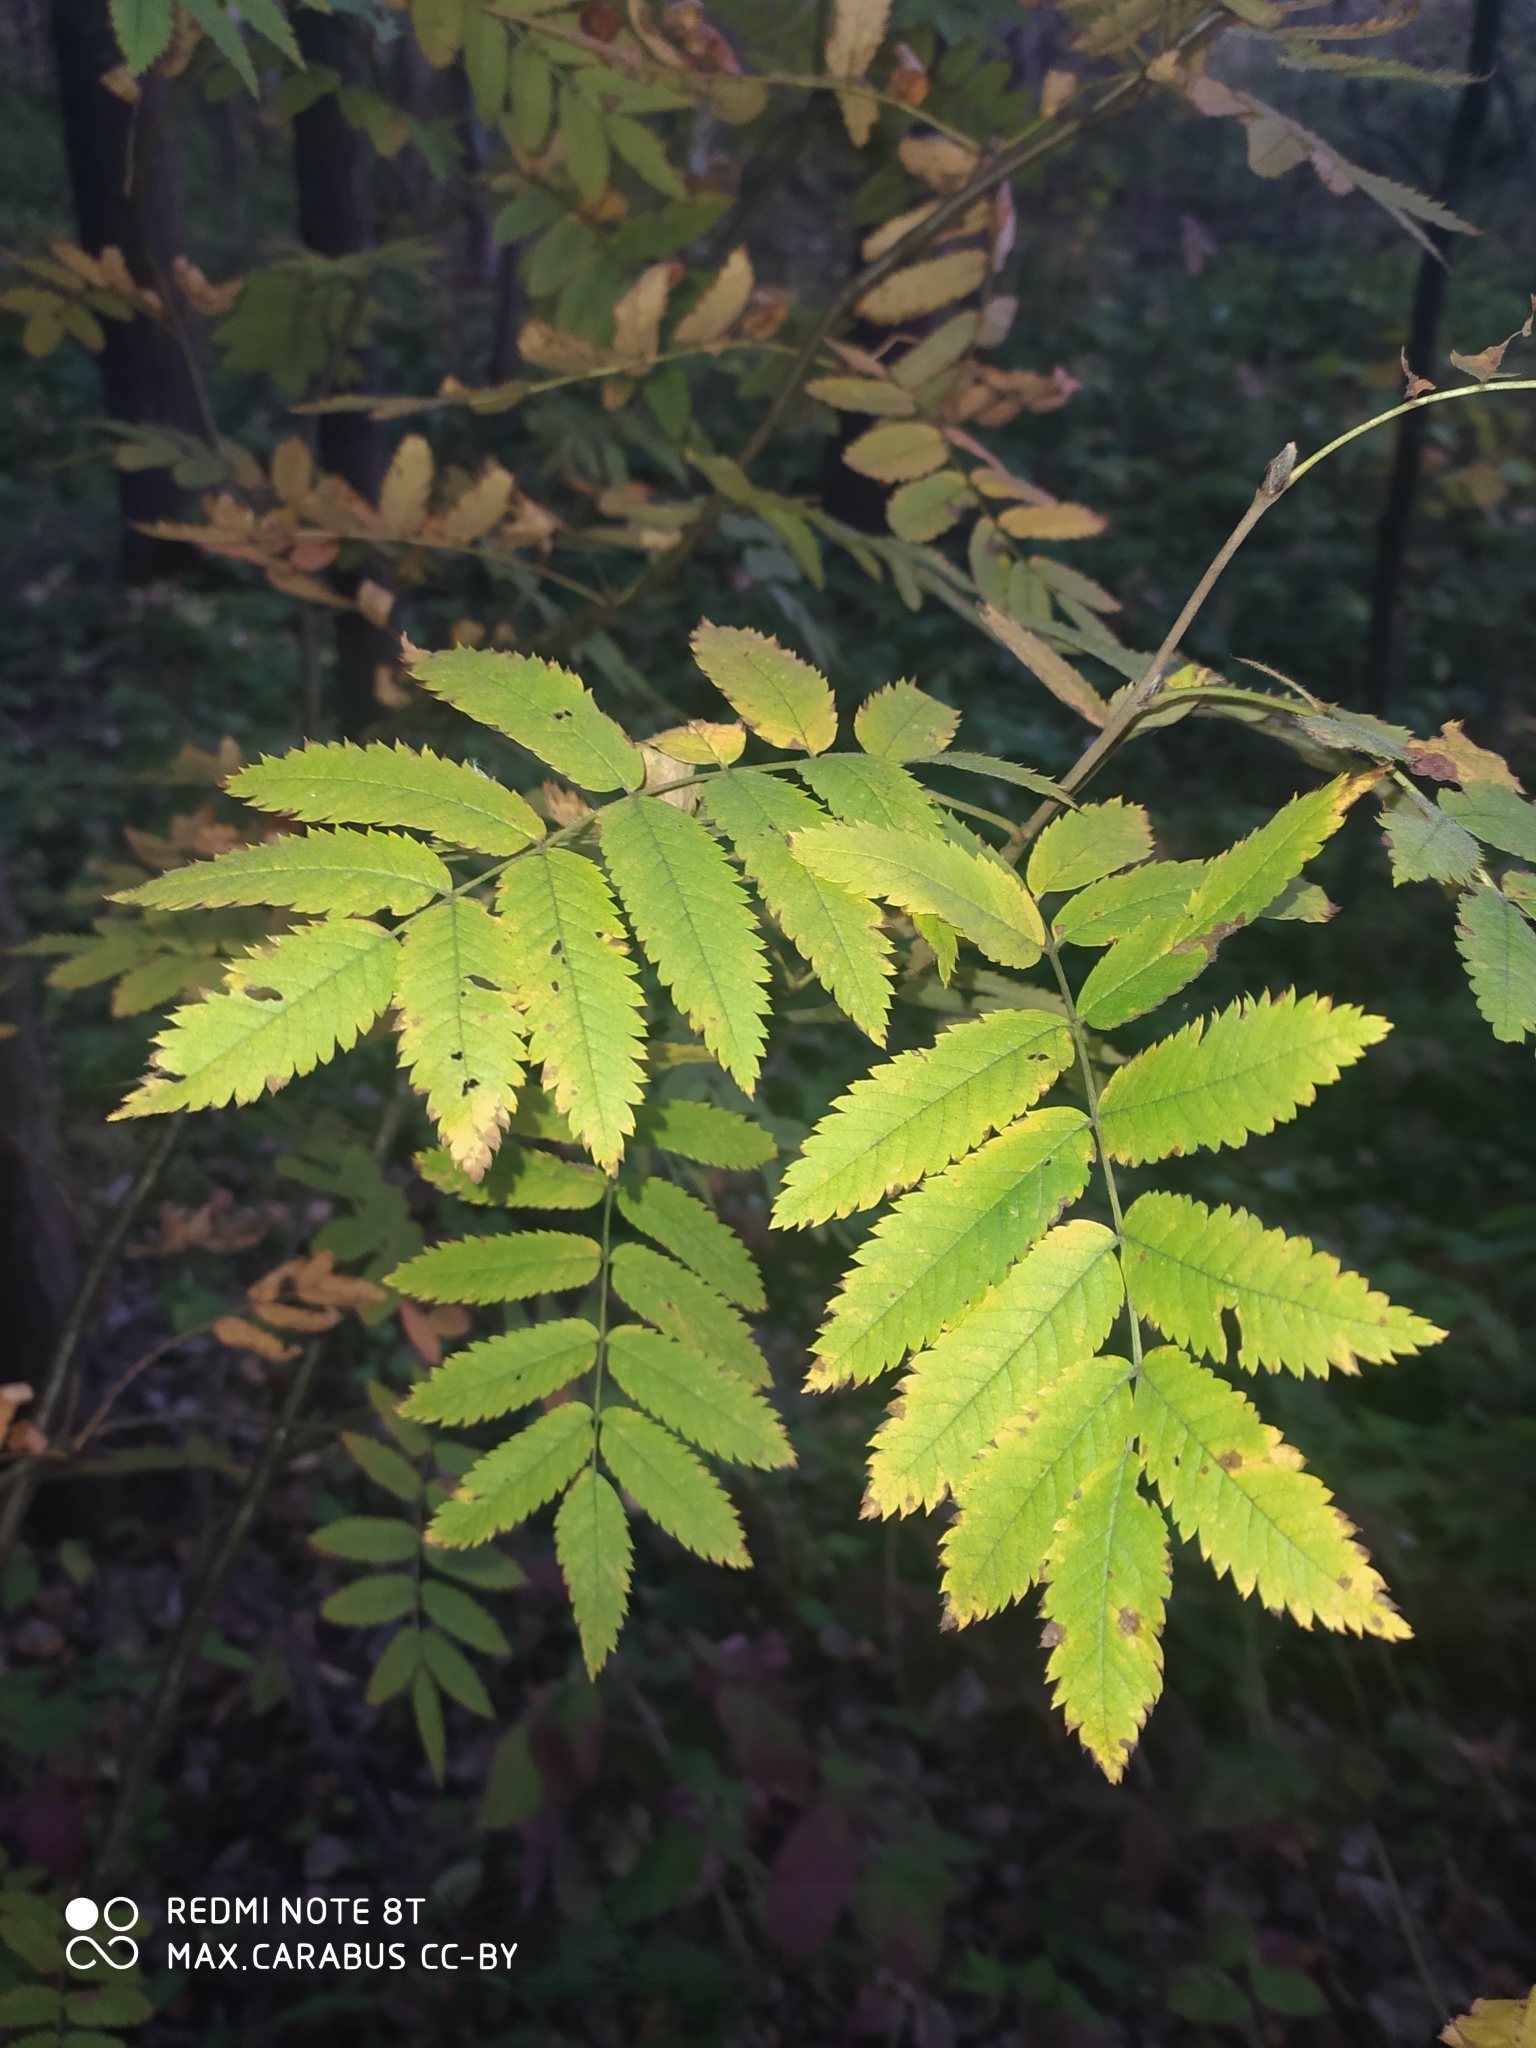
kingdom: Plantae
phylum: Tracheophyta
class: Magnoliopsida
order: Rosales
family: Rosaceae
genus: Sorbus
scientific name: Sorbus aucuparia
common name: Rowan
